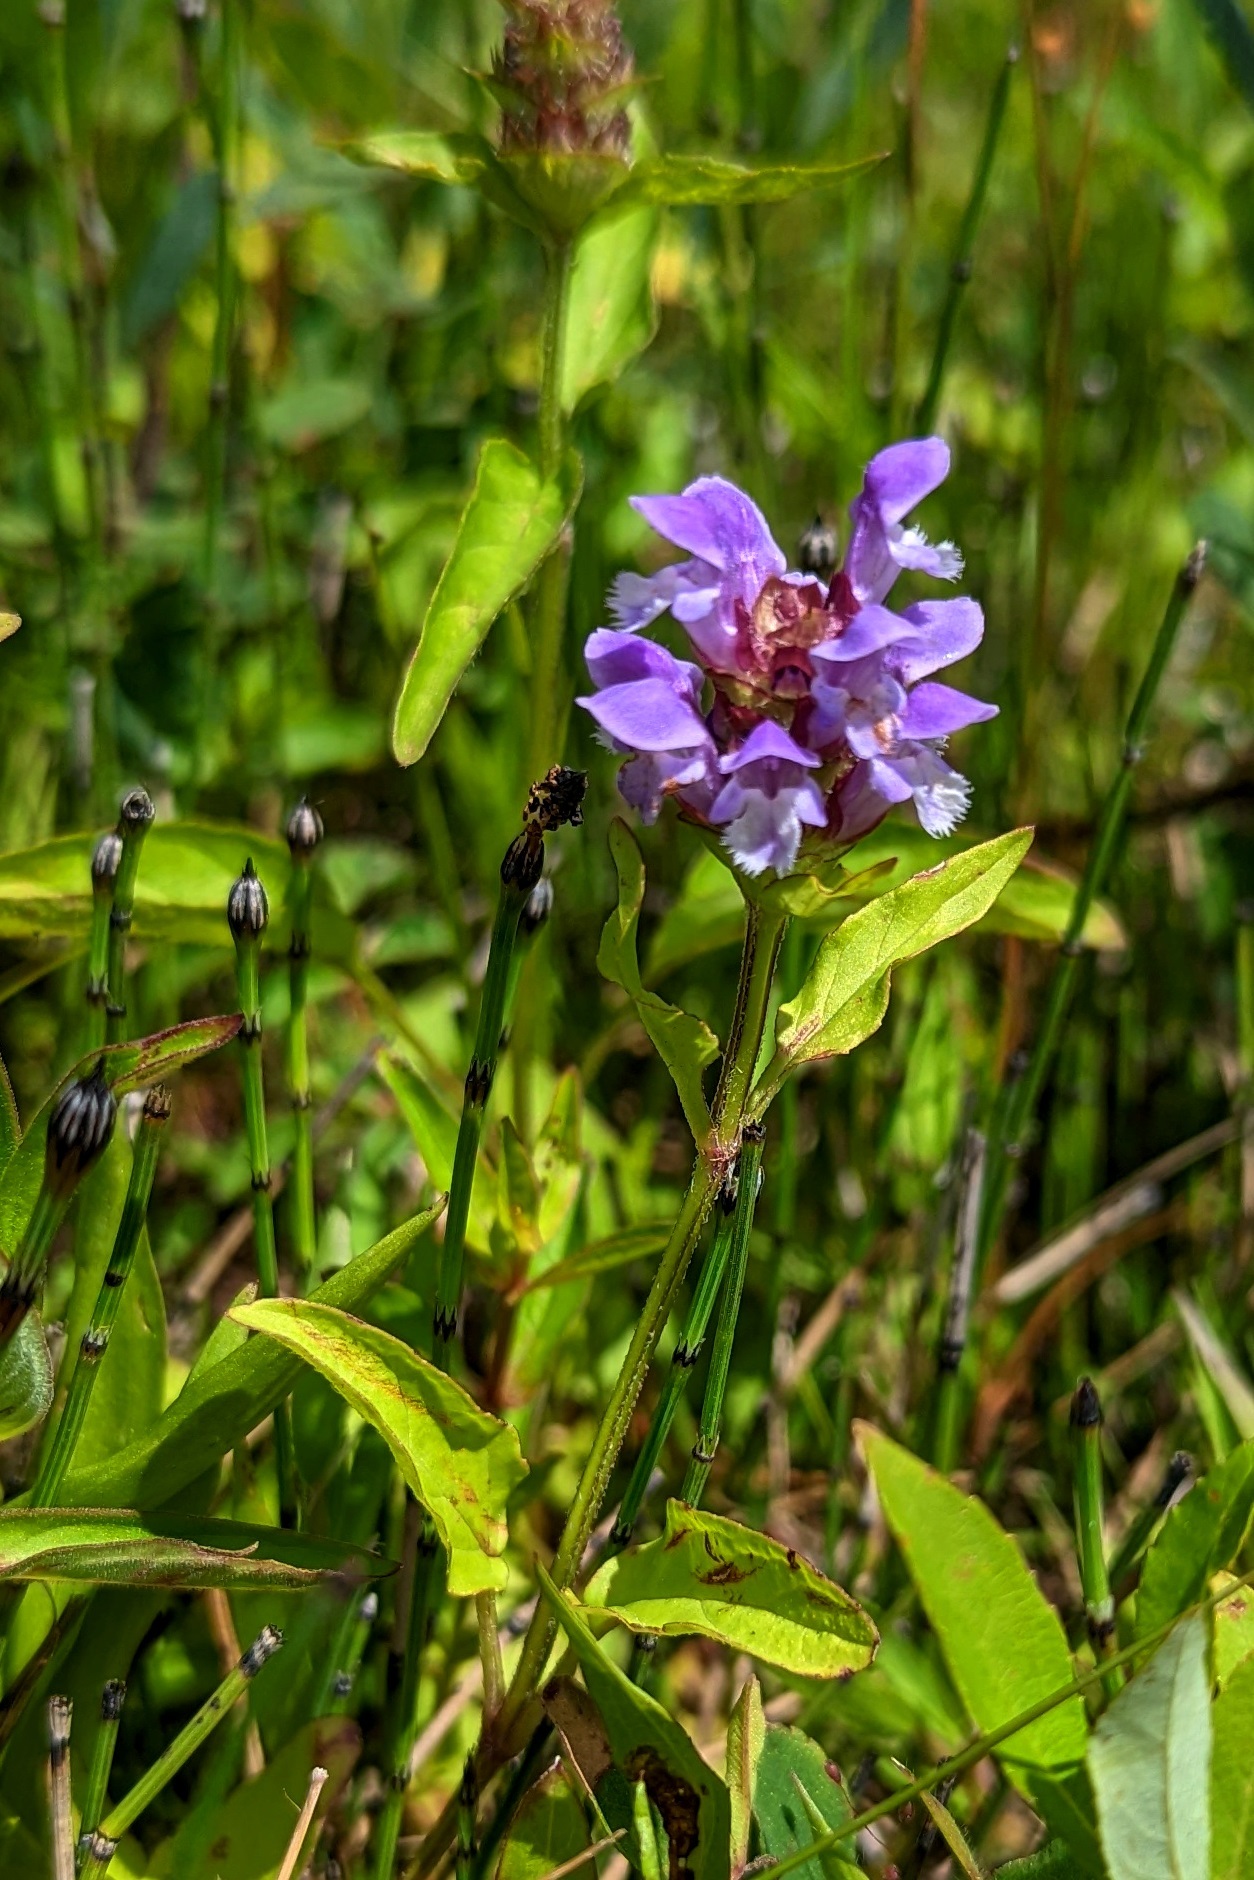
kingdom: Plantae
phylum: Tracheophyta
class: Magnoliopsida
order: Lamiales
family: Lamiaceae
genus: Prunella
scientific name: Prunella vulgaris
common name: Heal-all
